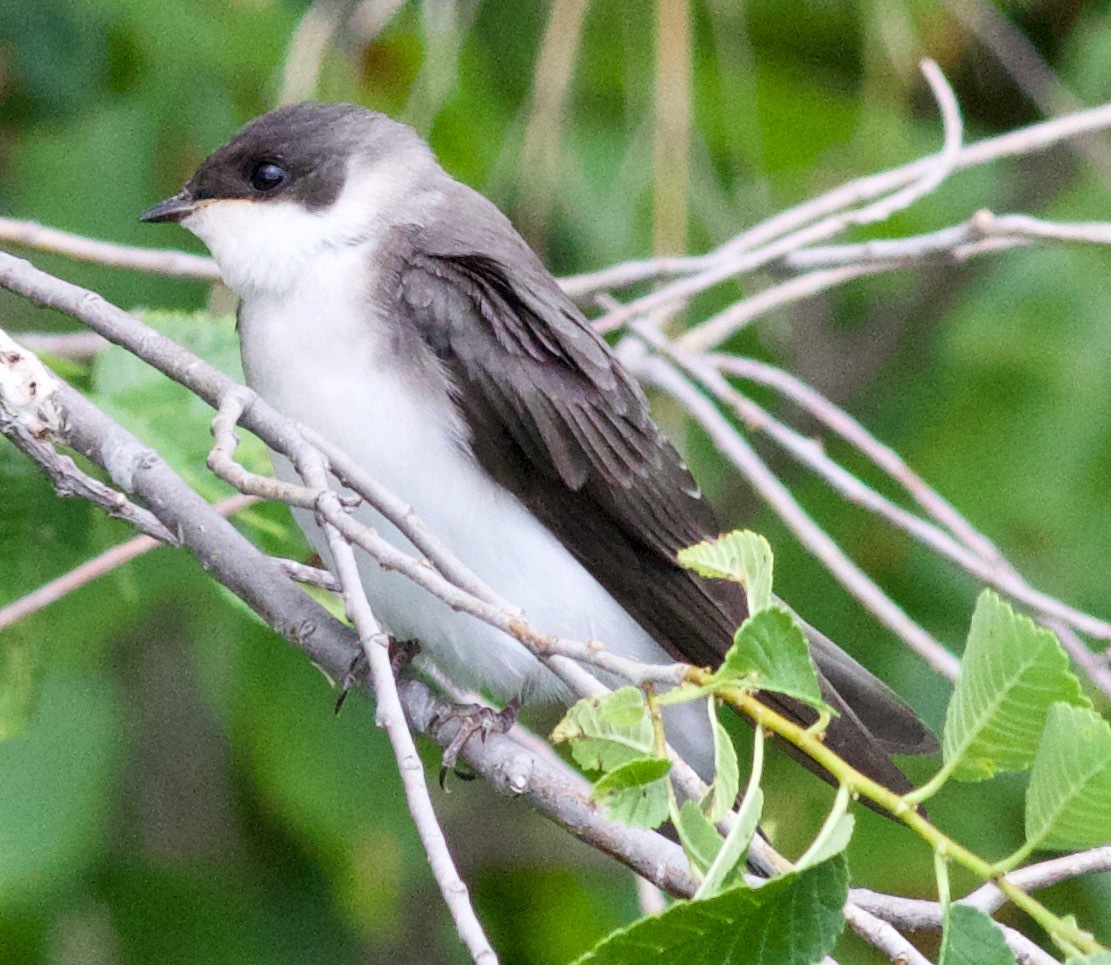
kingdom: Animalia
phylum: Chordata
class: Aves
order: Passeriformes
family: Hirundinidae
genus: Tachycineta
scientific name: Tachycineta bicolor
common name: Tree swallow
